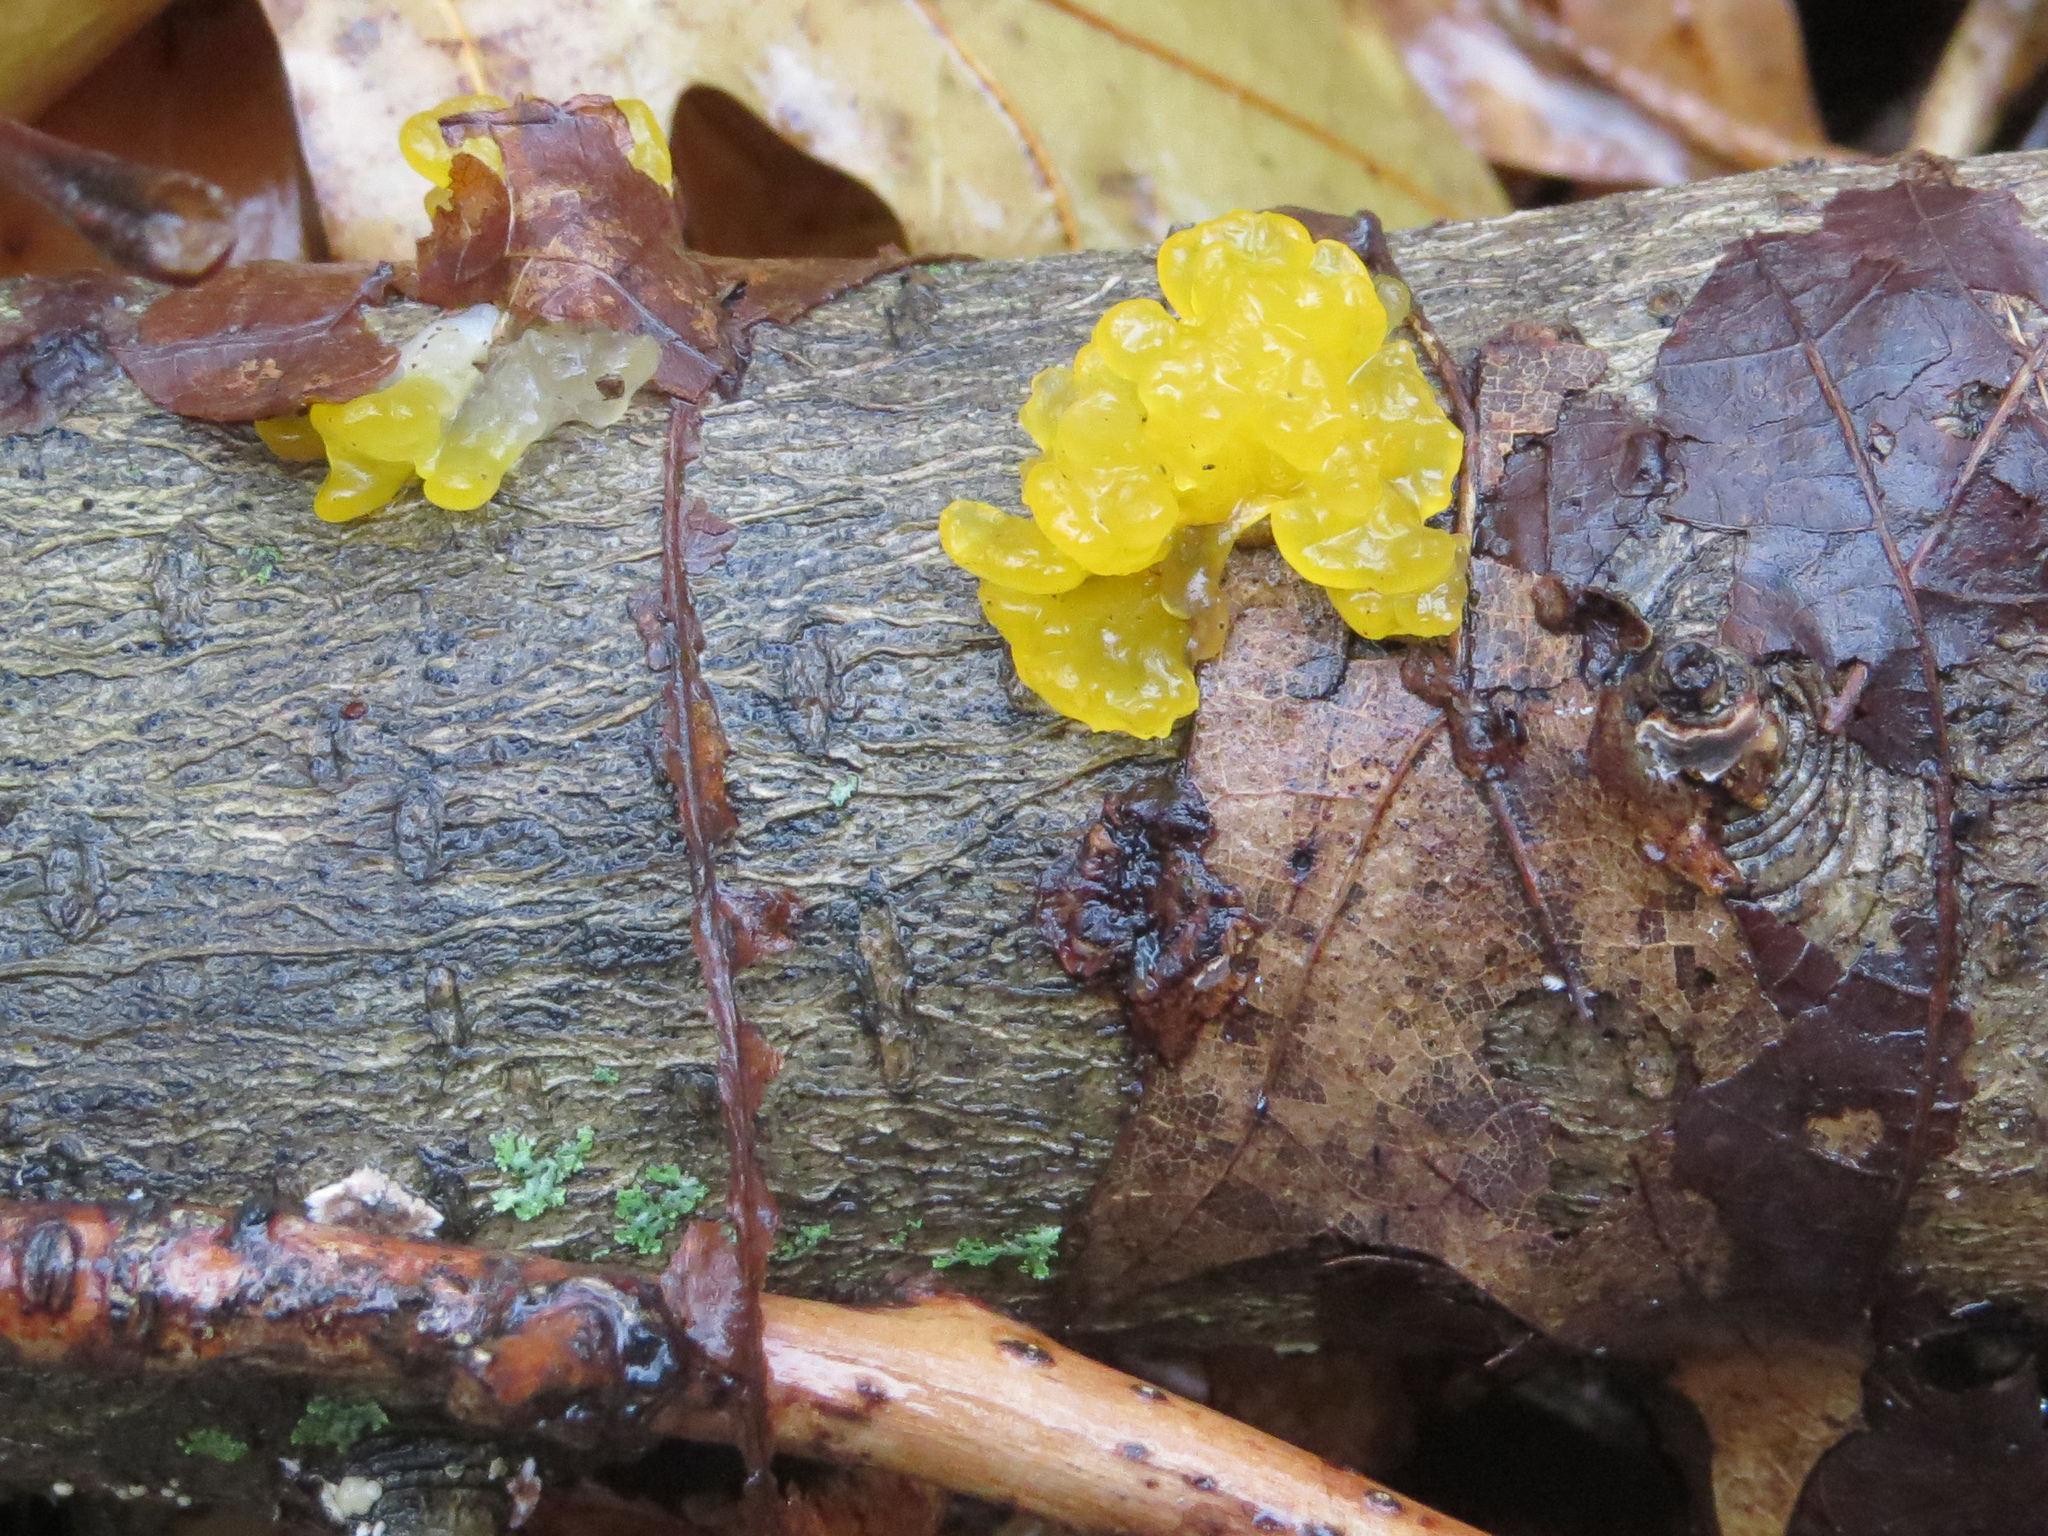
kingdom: Fungi
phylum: Basidiomycota
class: Tremellomycetes
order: Tremellales
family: Tremellaceae
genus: Tremella
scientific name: Tremella mesenterica
